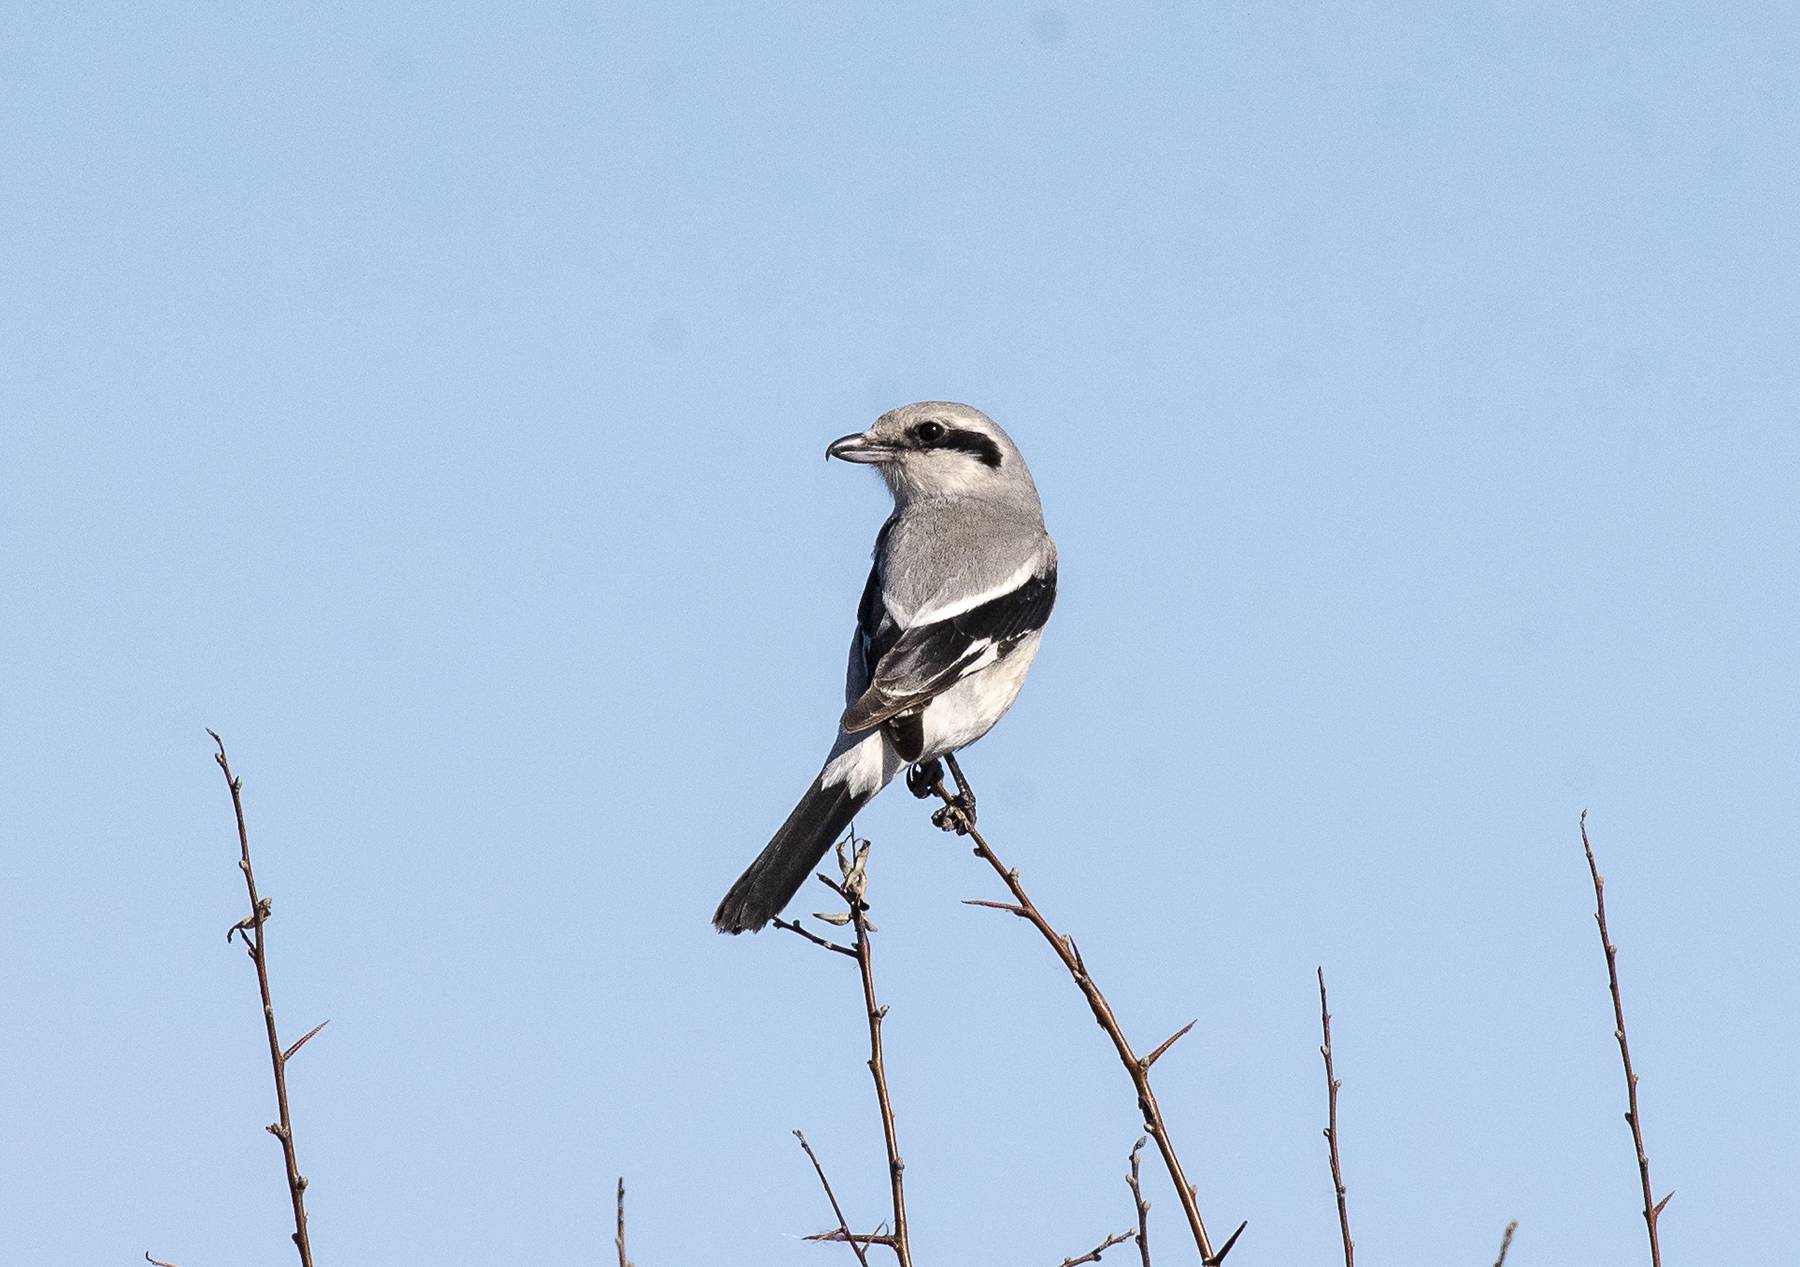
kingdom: Animalia
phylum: Chordata
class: Aves
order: Passeriformes
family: Laniidae
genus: Lanius
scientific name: Lanius excubitor
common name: Great grey shrike
